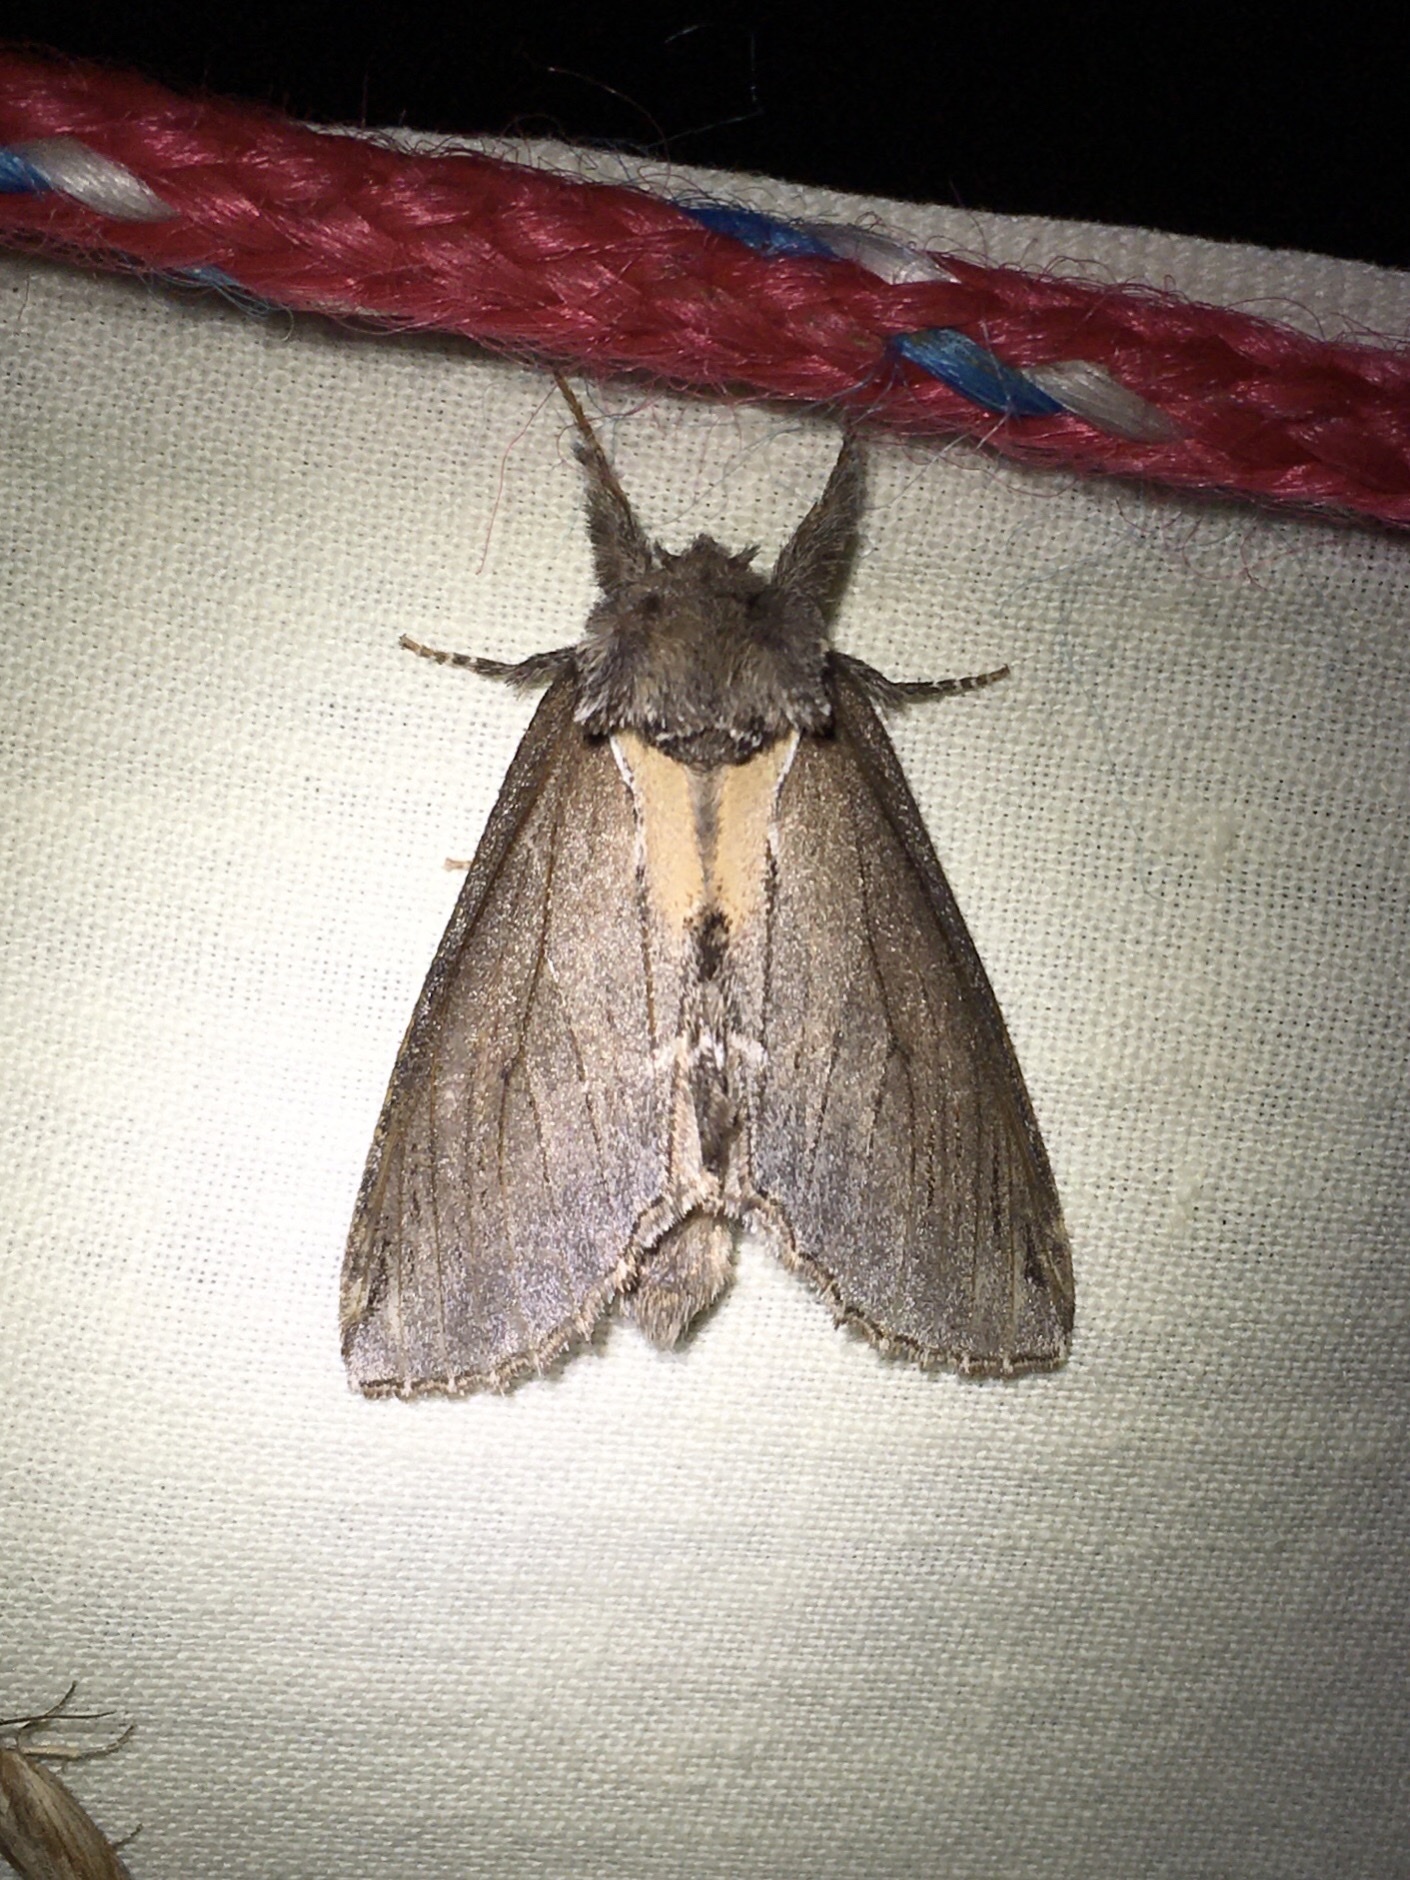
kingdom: Animalia
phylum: Arthropoda
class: Insecta
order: Lepidoptera
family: Notodontidae
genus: Pheosidea
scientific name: Pheosidea elegans
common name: Elegant prominent
